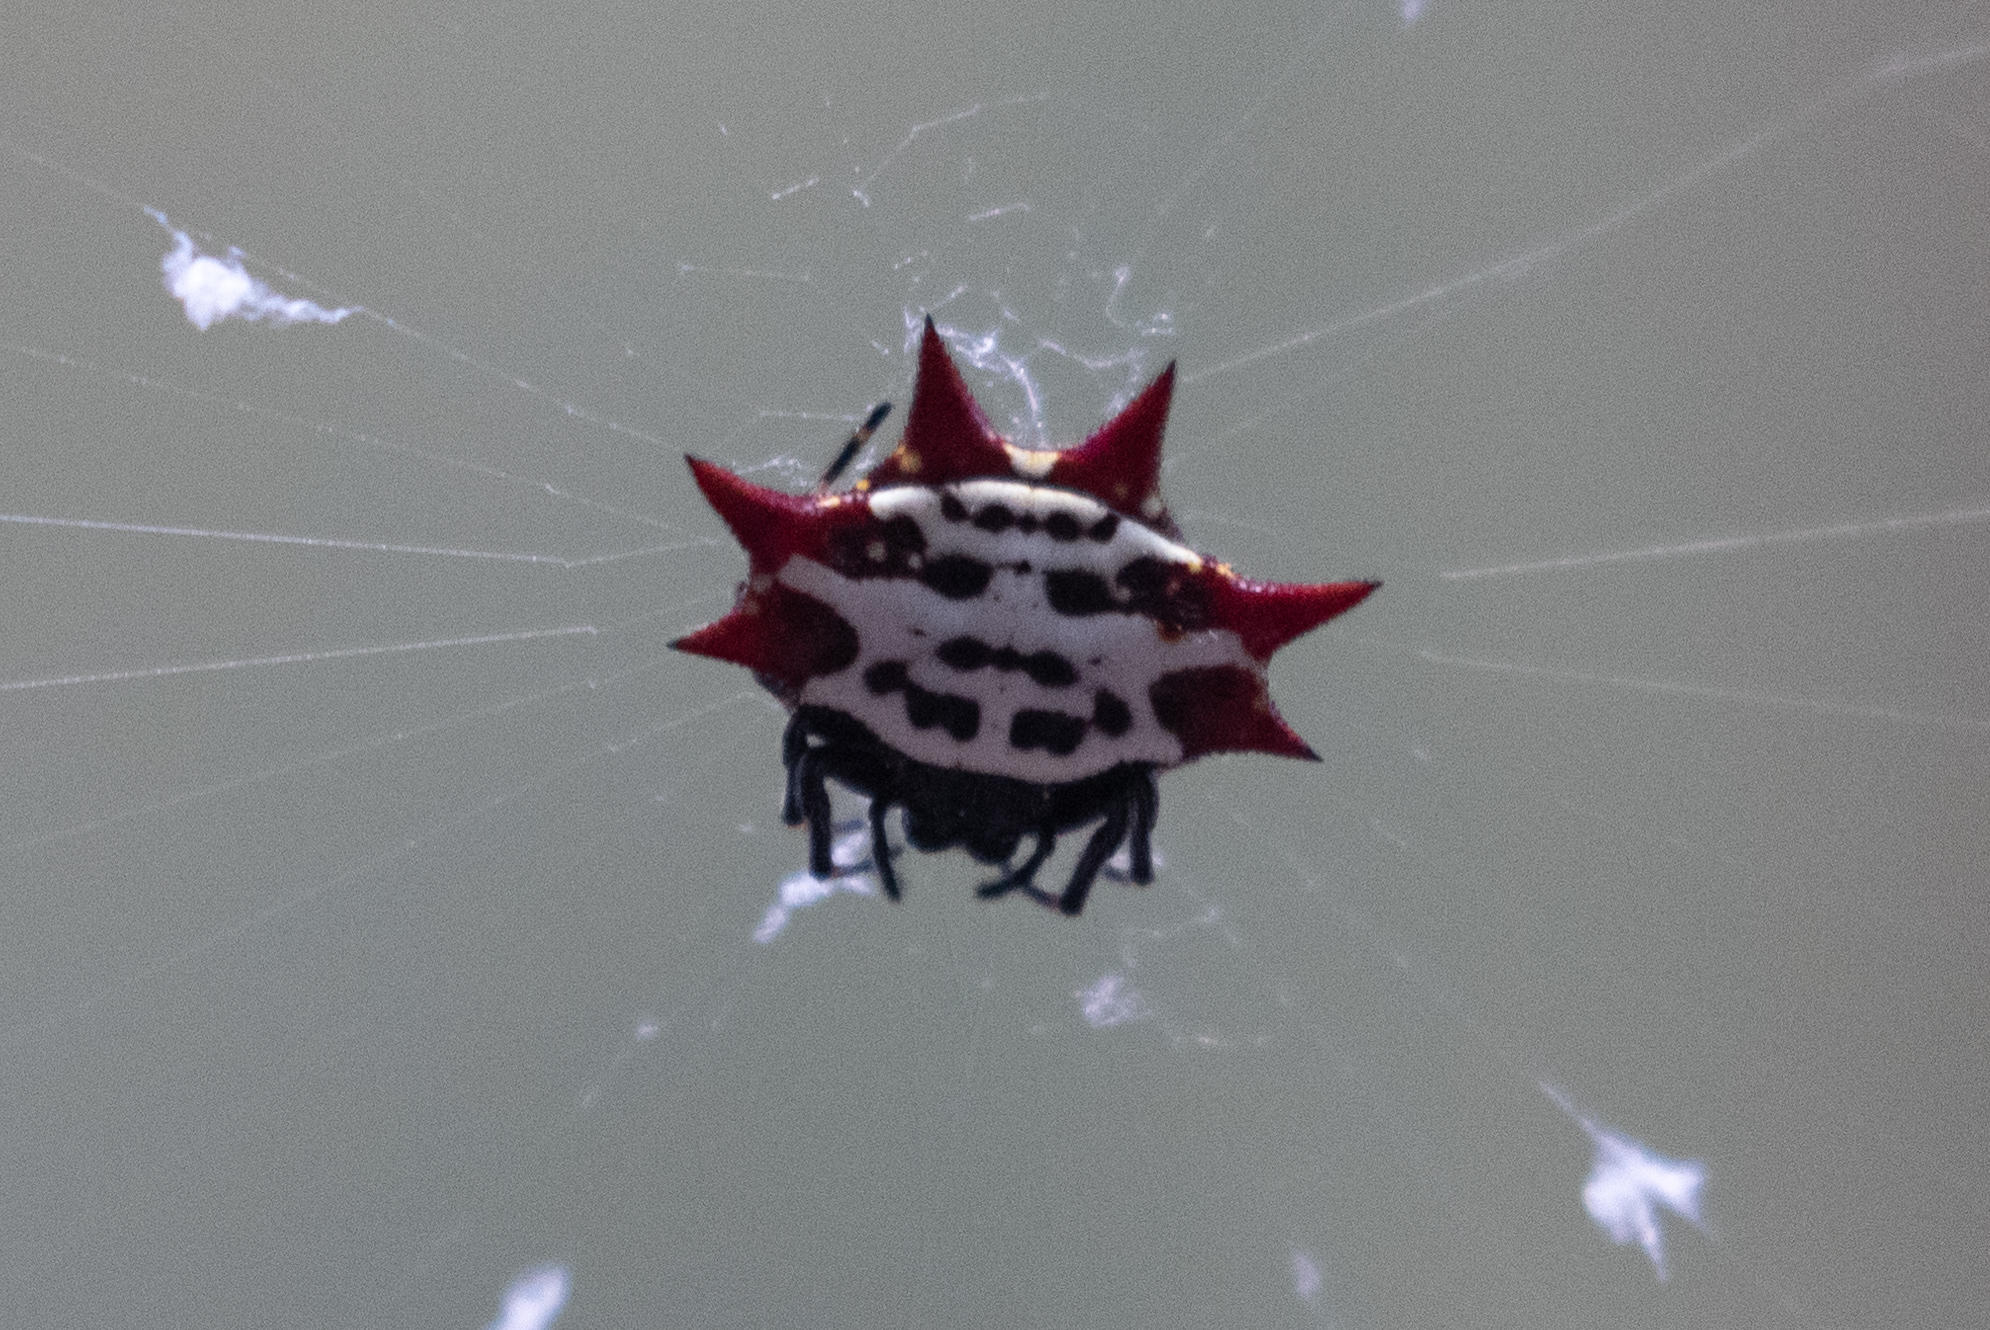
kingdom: Animalia
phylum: Arthropoda
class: Arachnida
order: Araneae
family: Araneidae
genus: Gasteracantha
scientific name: Gasteracantha cancriformis
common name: Orb weavers
